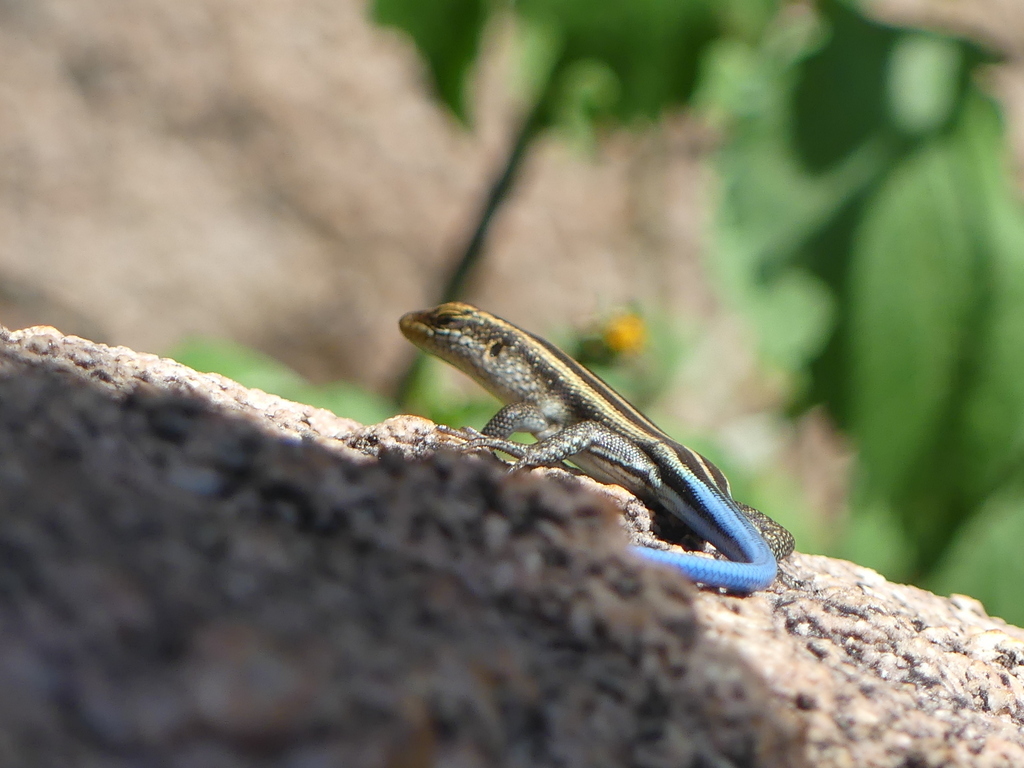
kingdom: Animalia
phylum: Chordata
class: Squamata
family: Scincidae
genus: Trachylepis
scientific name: Trachylepis margaritifera
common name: Rainbow skink
